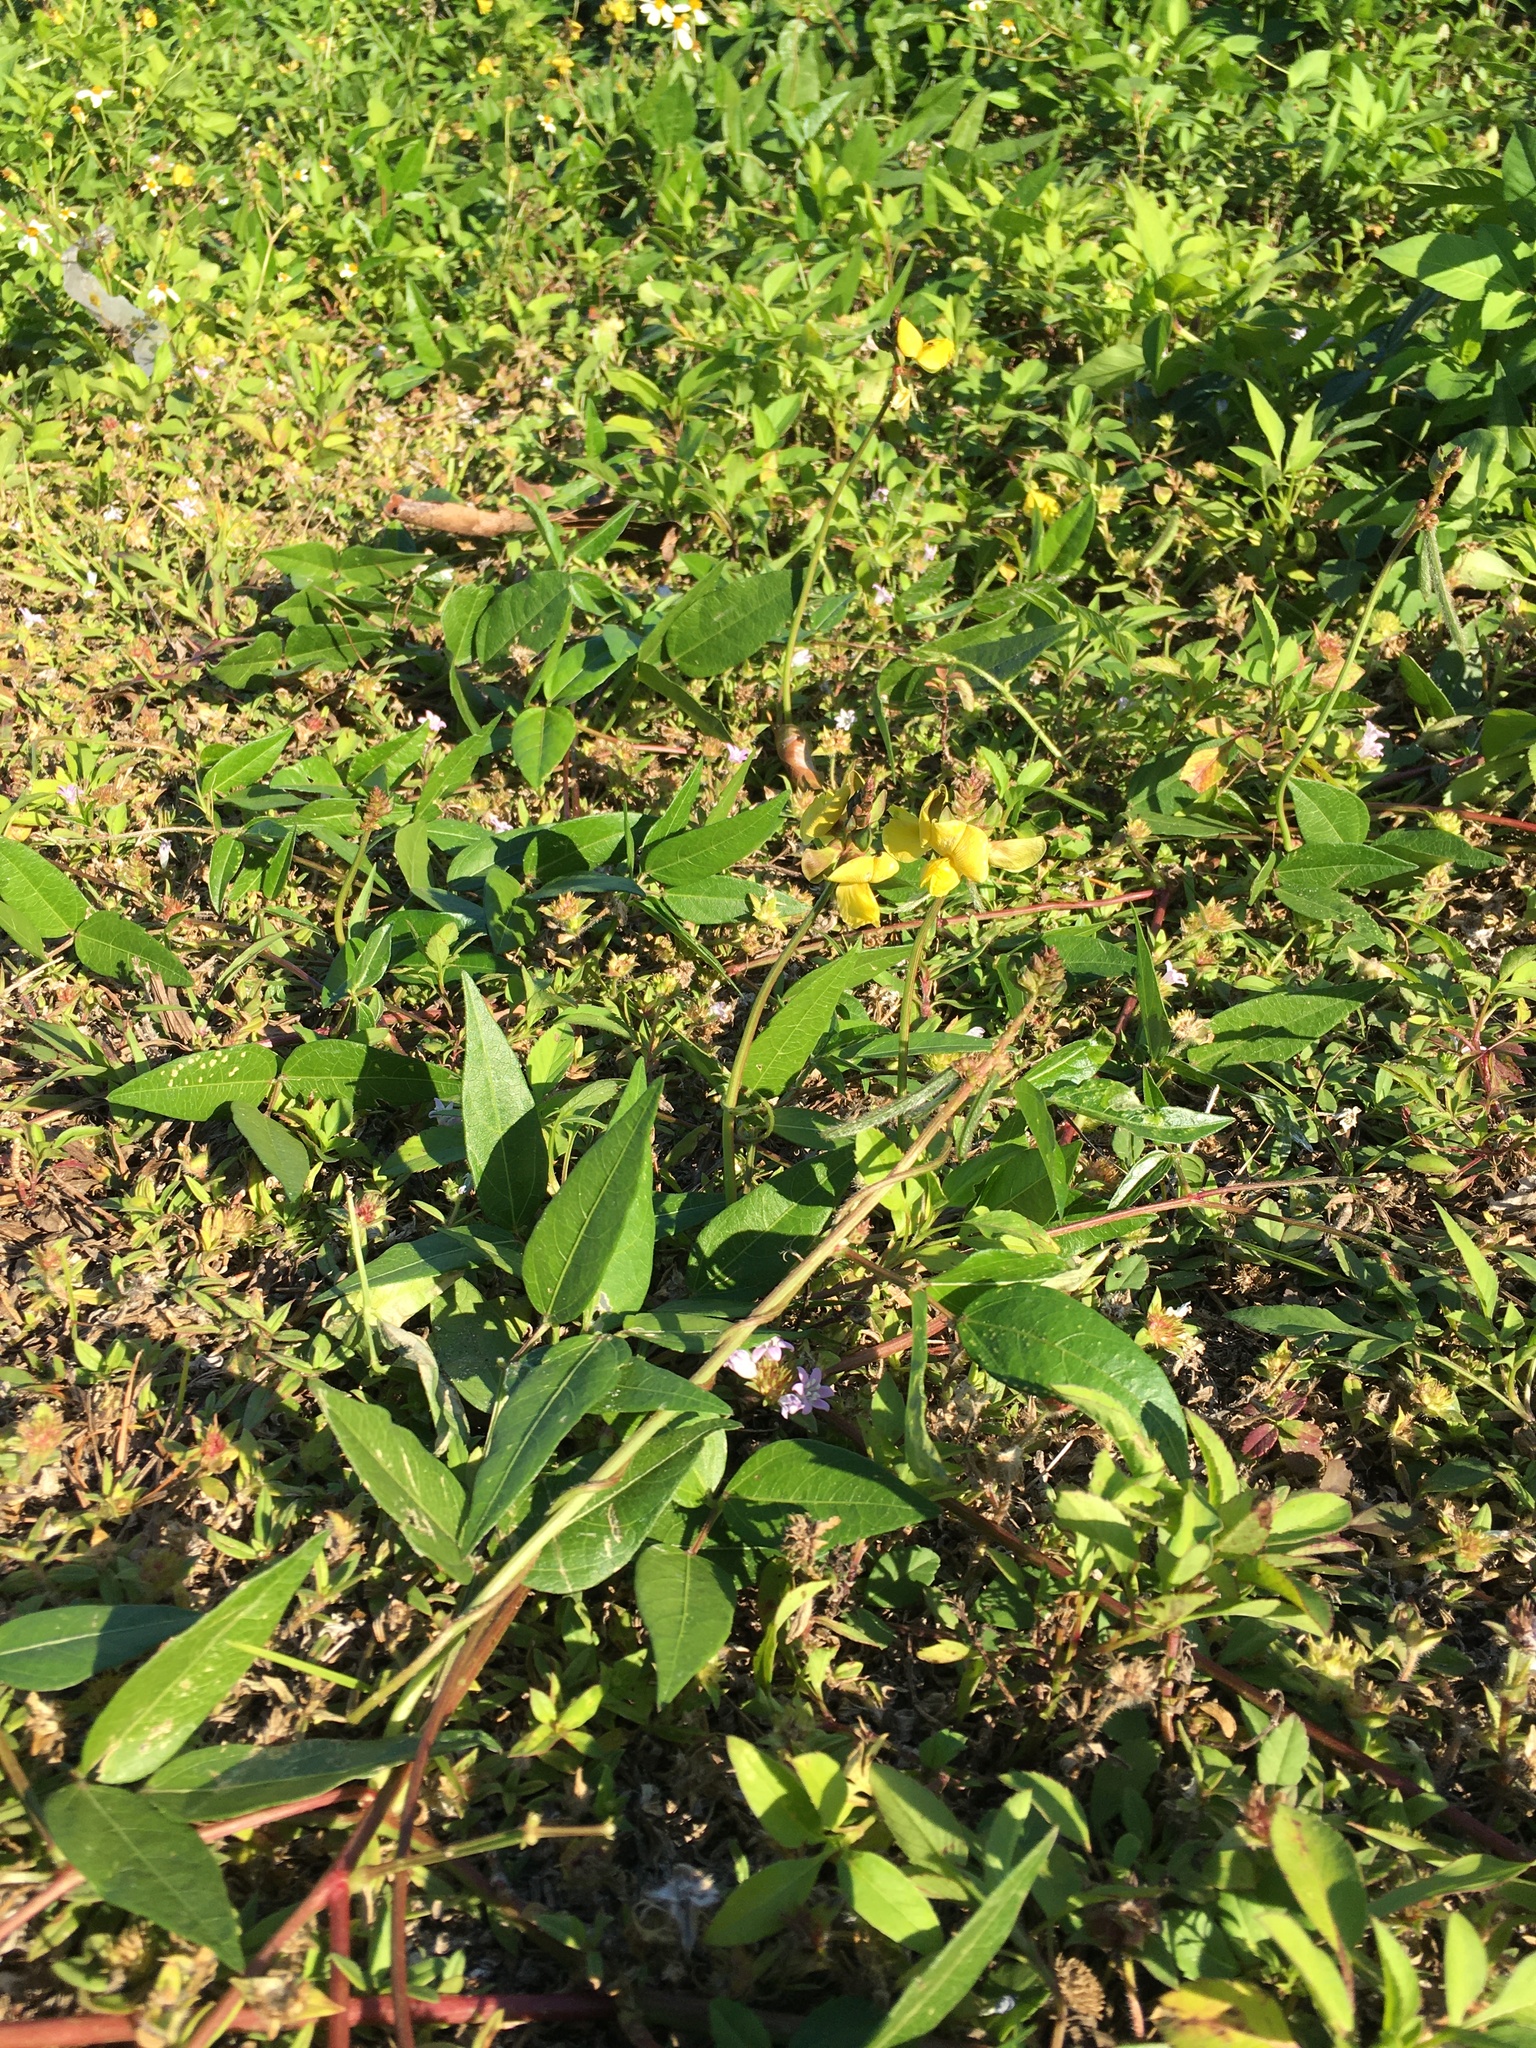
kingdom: Plantae
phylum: Tracheophyta
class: Magnoliopsida
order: Fabales
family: Fabaceae
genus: Vigna
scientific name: Vigna luteola
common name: Hairypod cowpea
